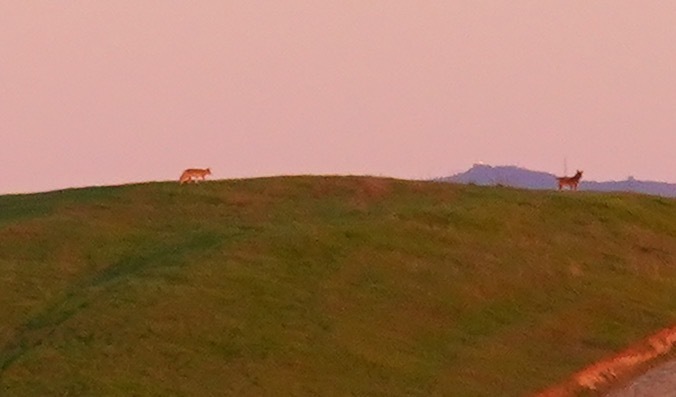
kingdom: Animalia
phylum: Chordata
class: Mammalia
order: Carnivora
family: Canidae
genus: Canis
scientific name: Canis latrans
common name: Coyote
